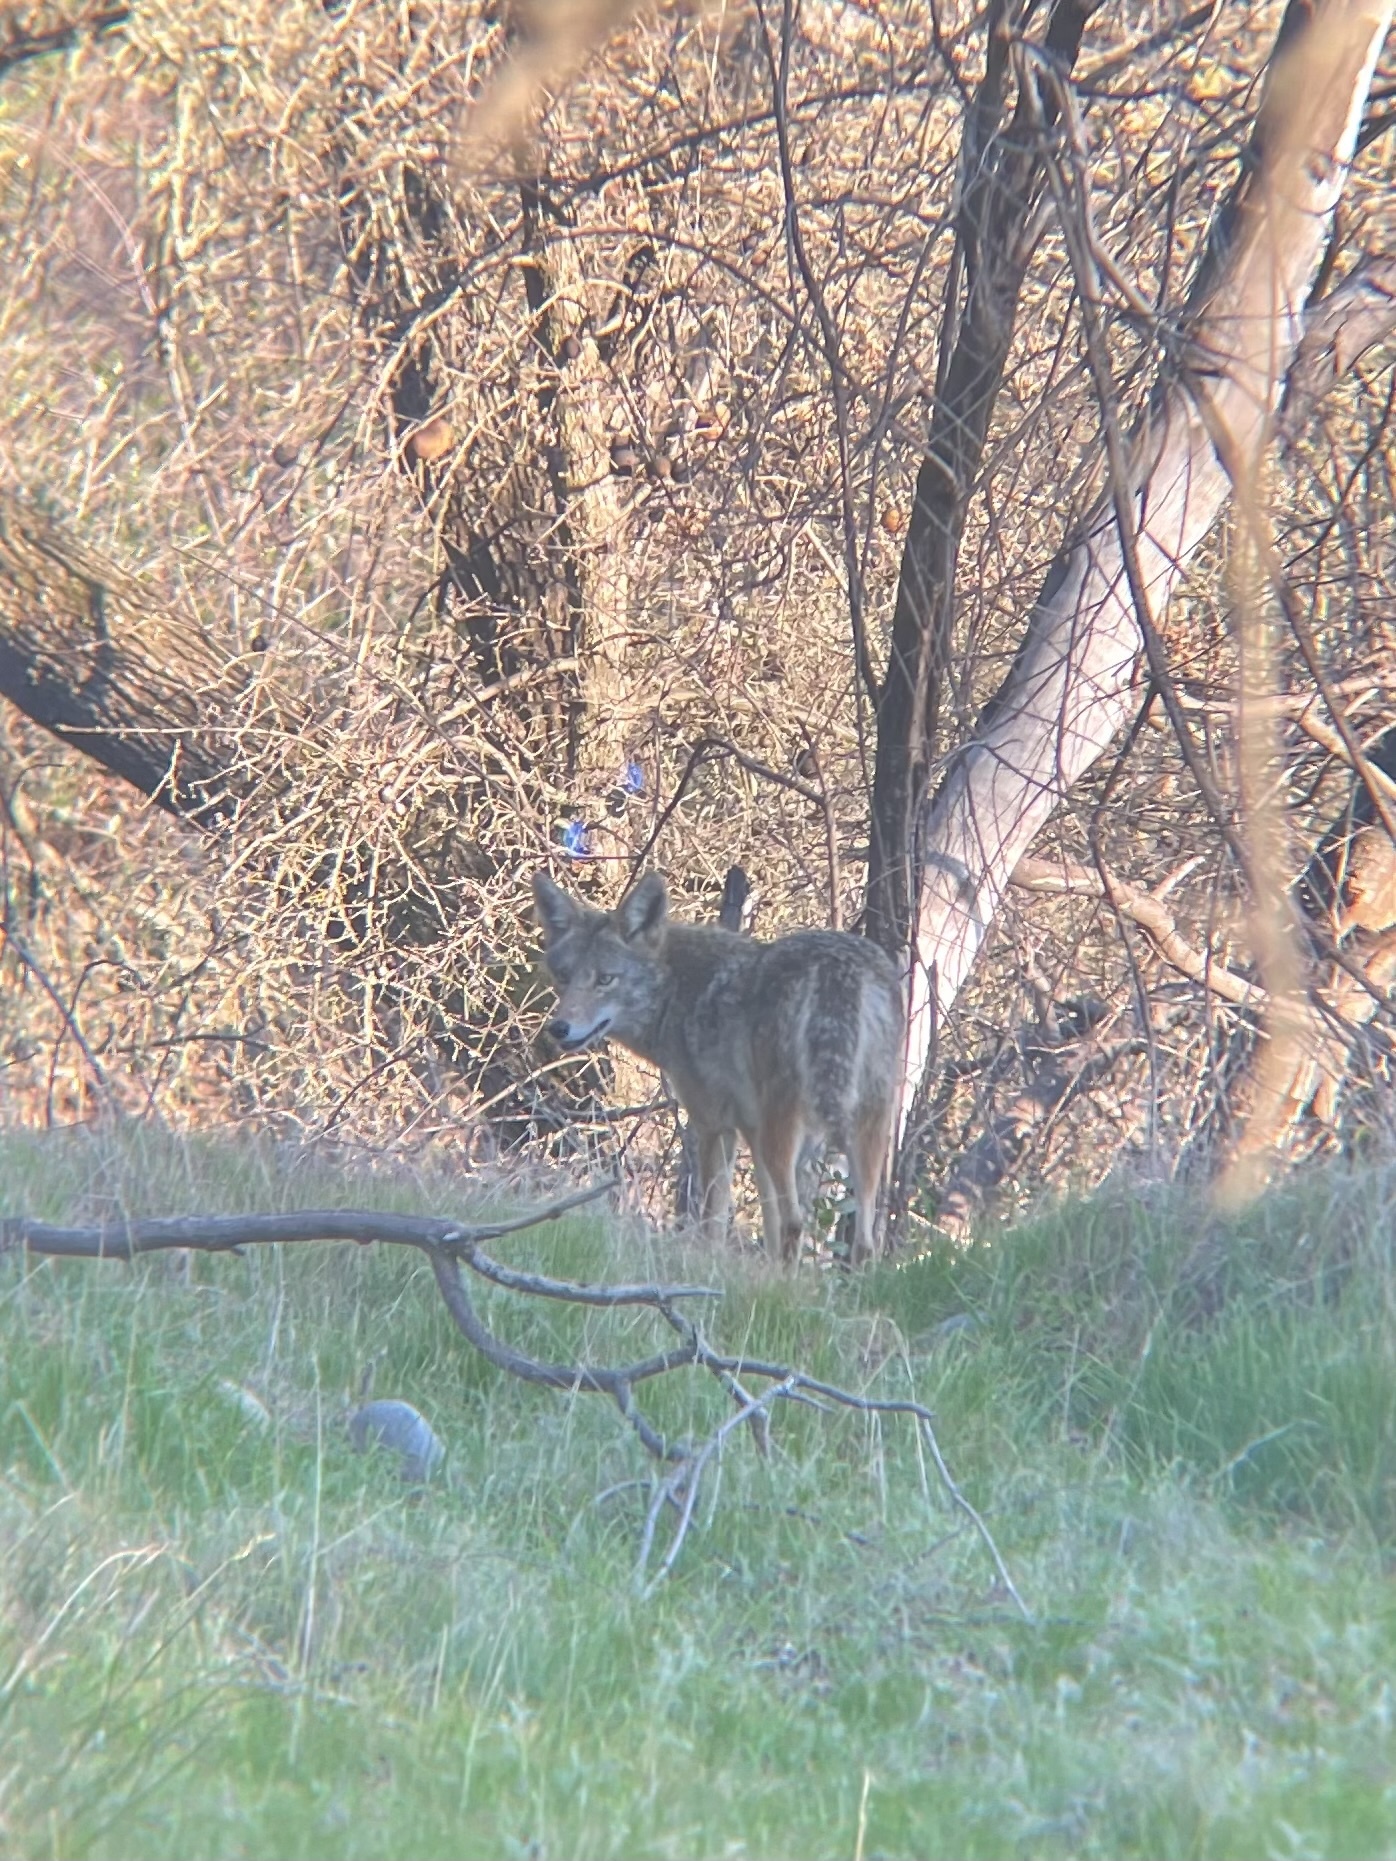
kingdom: Animalia
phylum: Chordata
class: Mammalia
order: Carnivora
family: Canidae
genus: Canis
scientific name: Canis latrans
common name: Coyote
